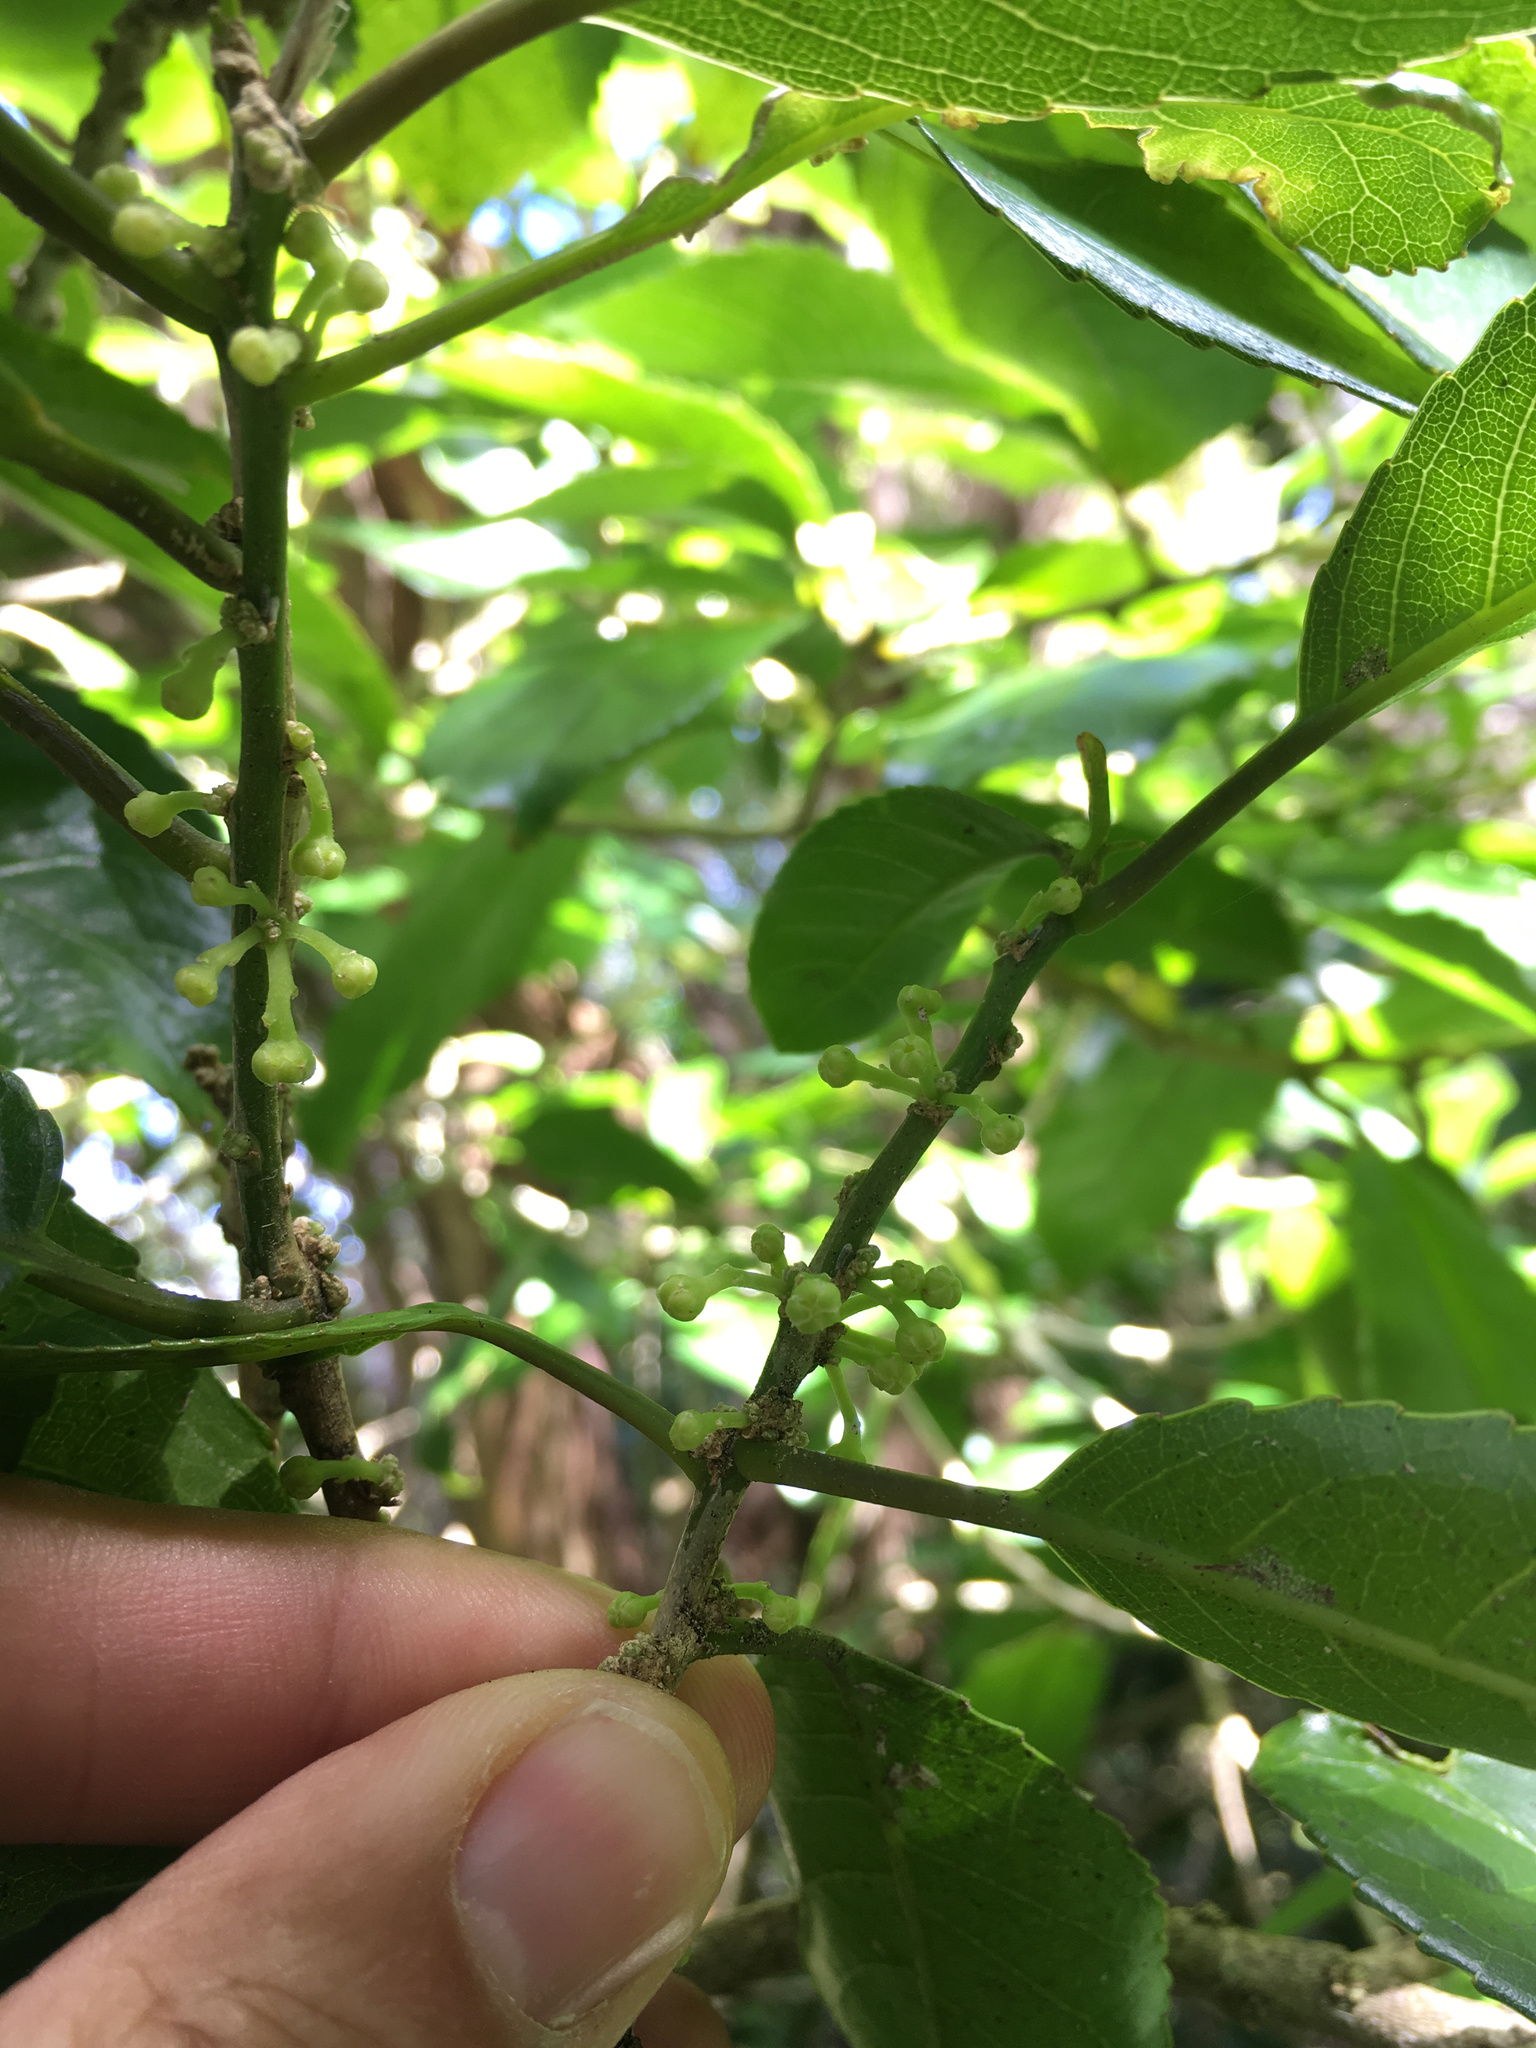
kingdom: Plantae
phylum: Tracheophyta
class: Magnoliopsida
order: Malpighiales
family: Violaceae
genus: Melicytus
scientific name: Melicytus ramiflorus
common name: Mahoe
